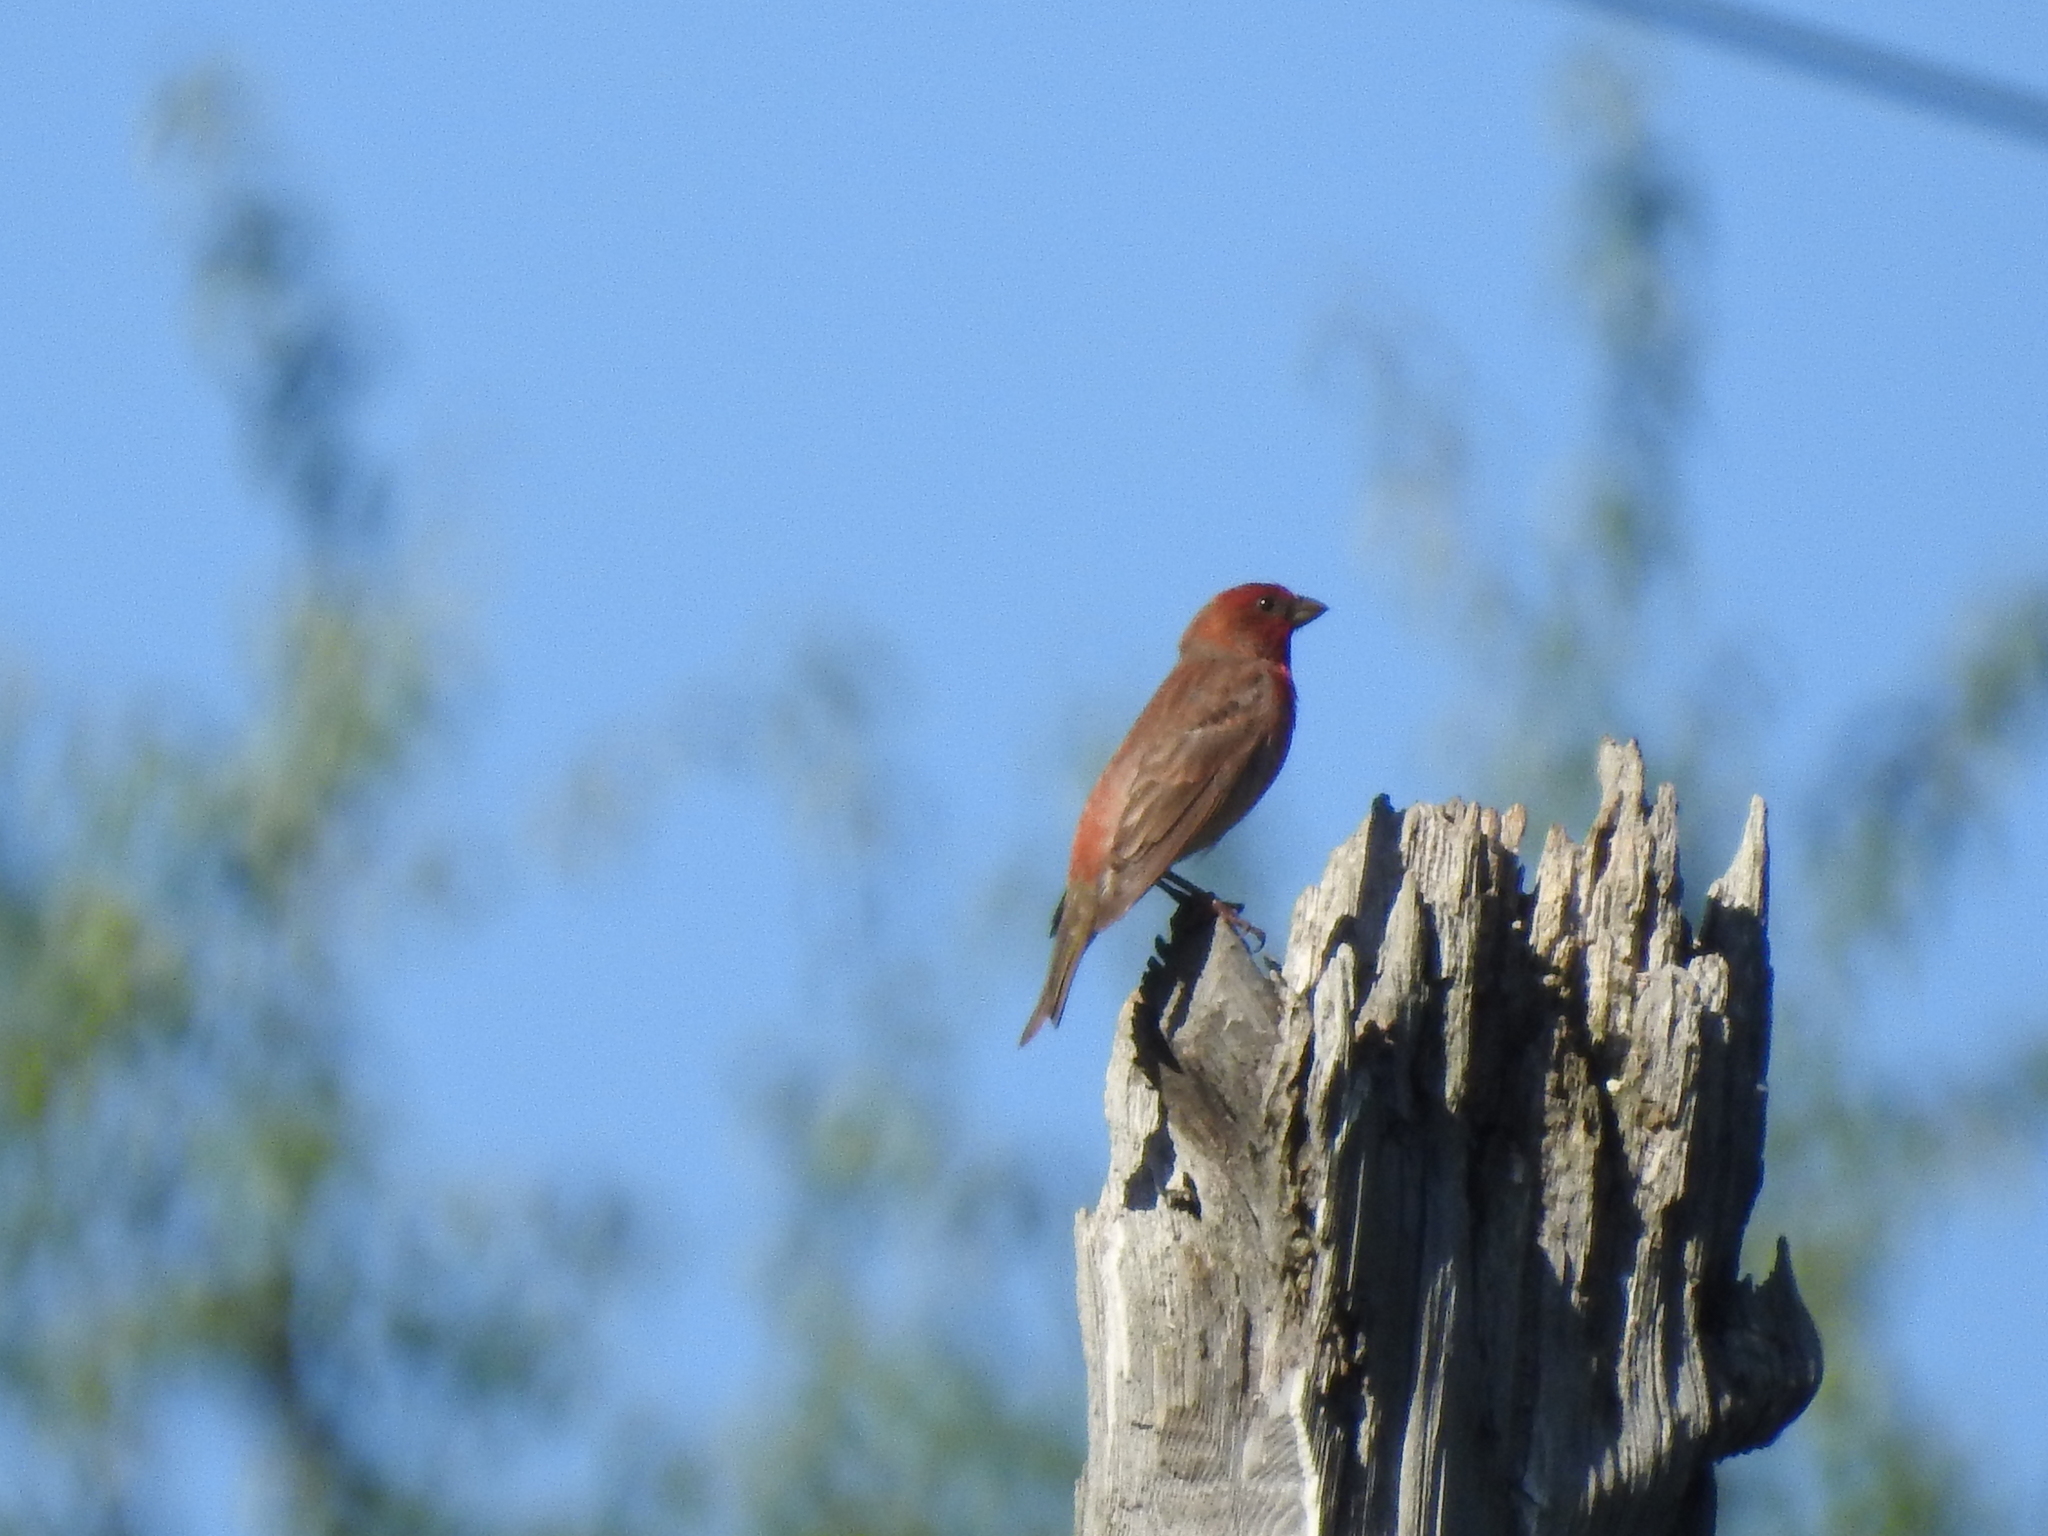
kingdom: Animalia
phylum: Chordata
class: Aves
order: Passeriformes
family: Fringillidae
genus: Carpodacus
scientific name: Carpodacus erythrinus
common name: Common rosefinch
